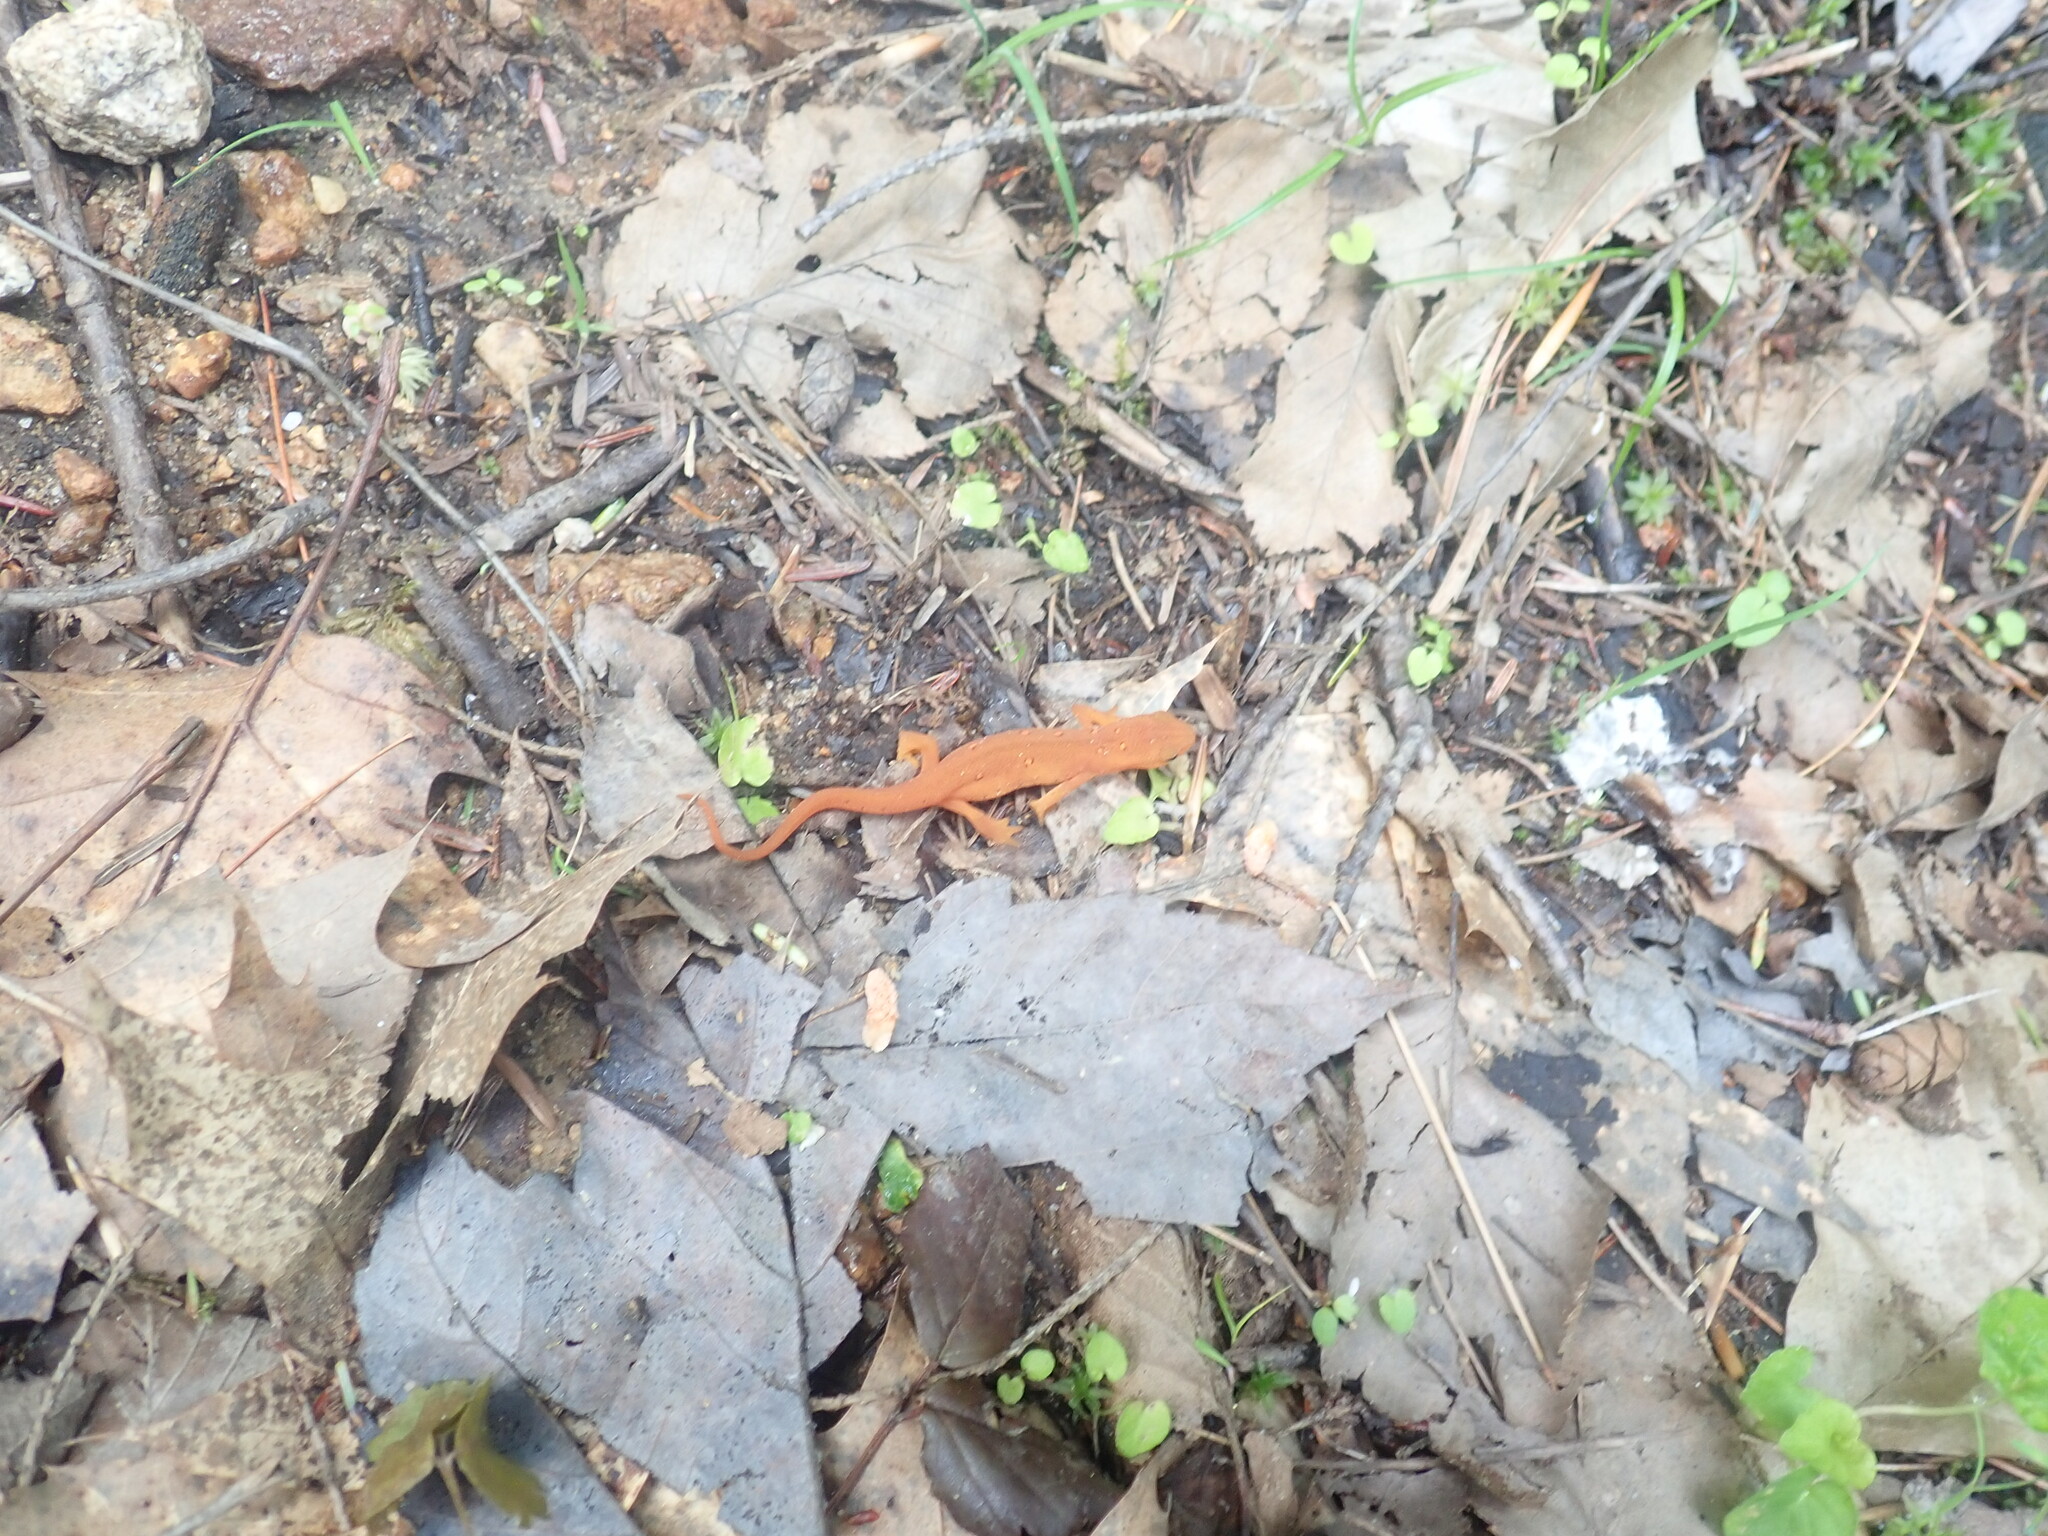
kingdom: Animalia
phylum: Chordata
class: Amphibia
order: Caudata
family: Salamandridae
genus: Notophthalmus
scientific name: Notophthalmus viridescens
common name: Eastern newt
